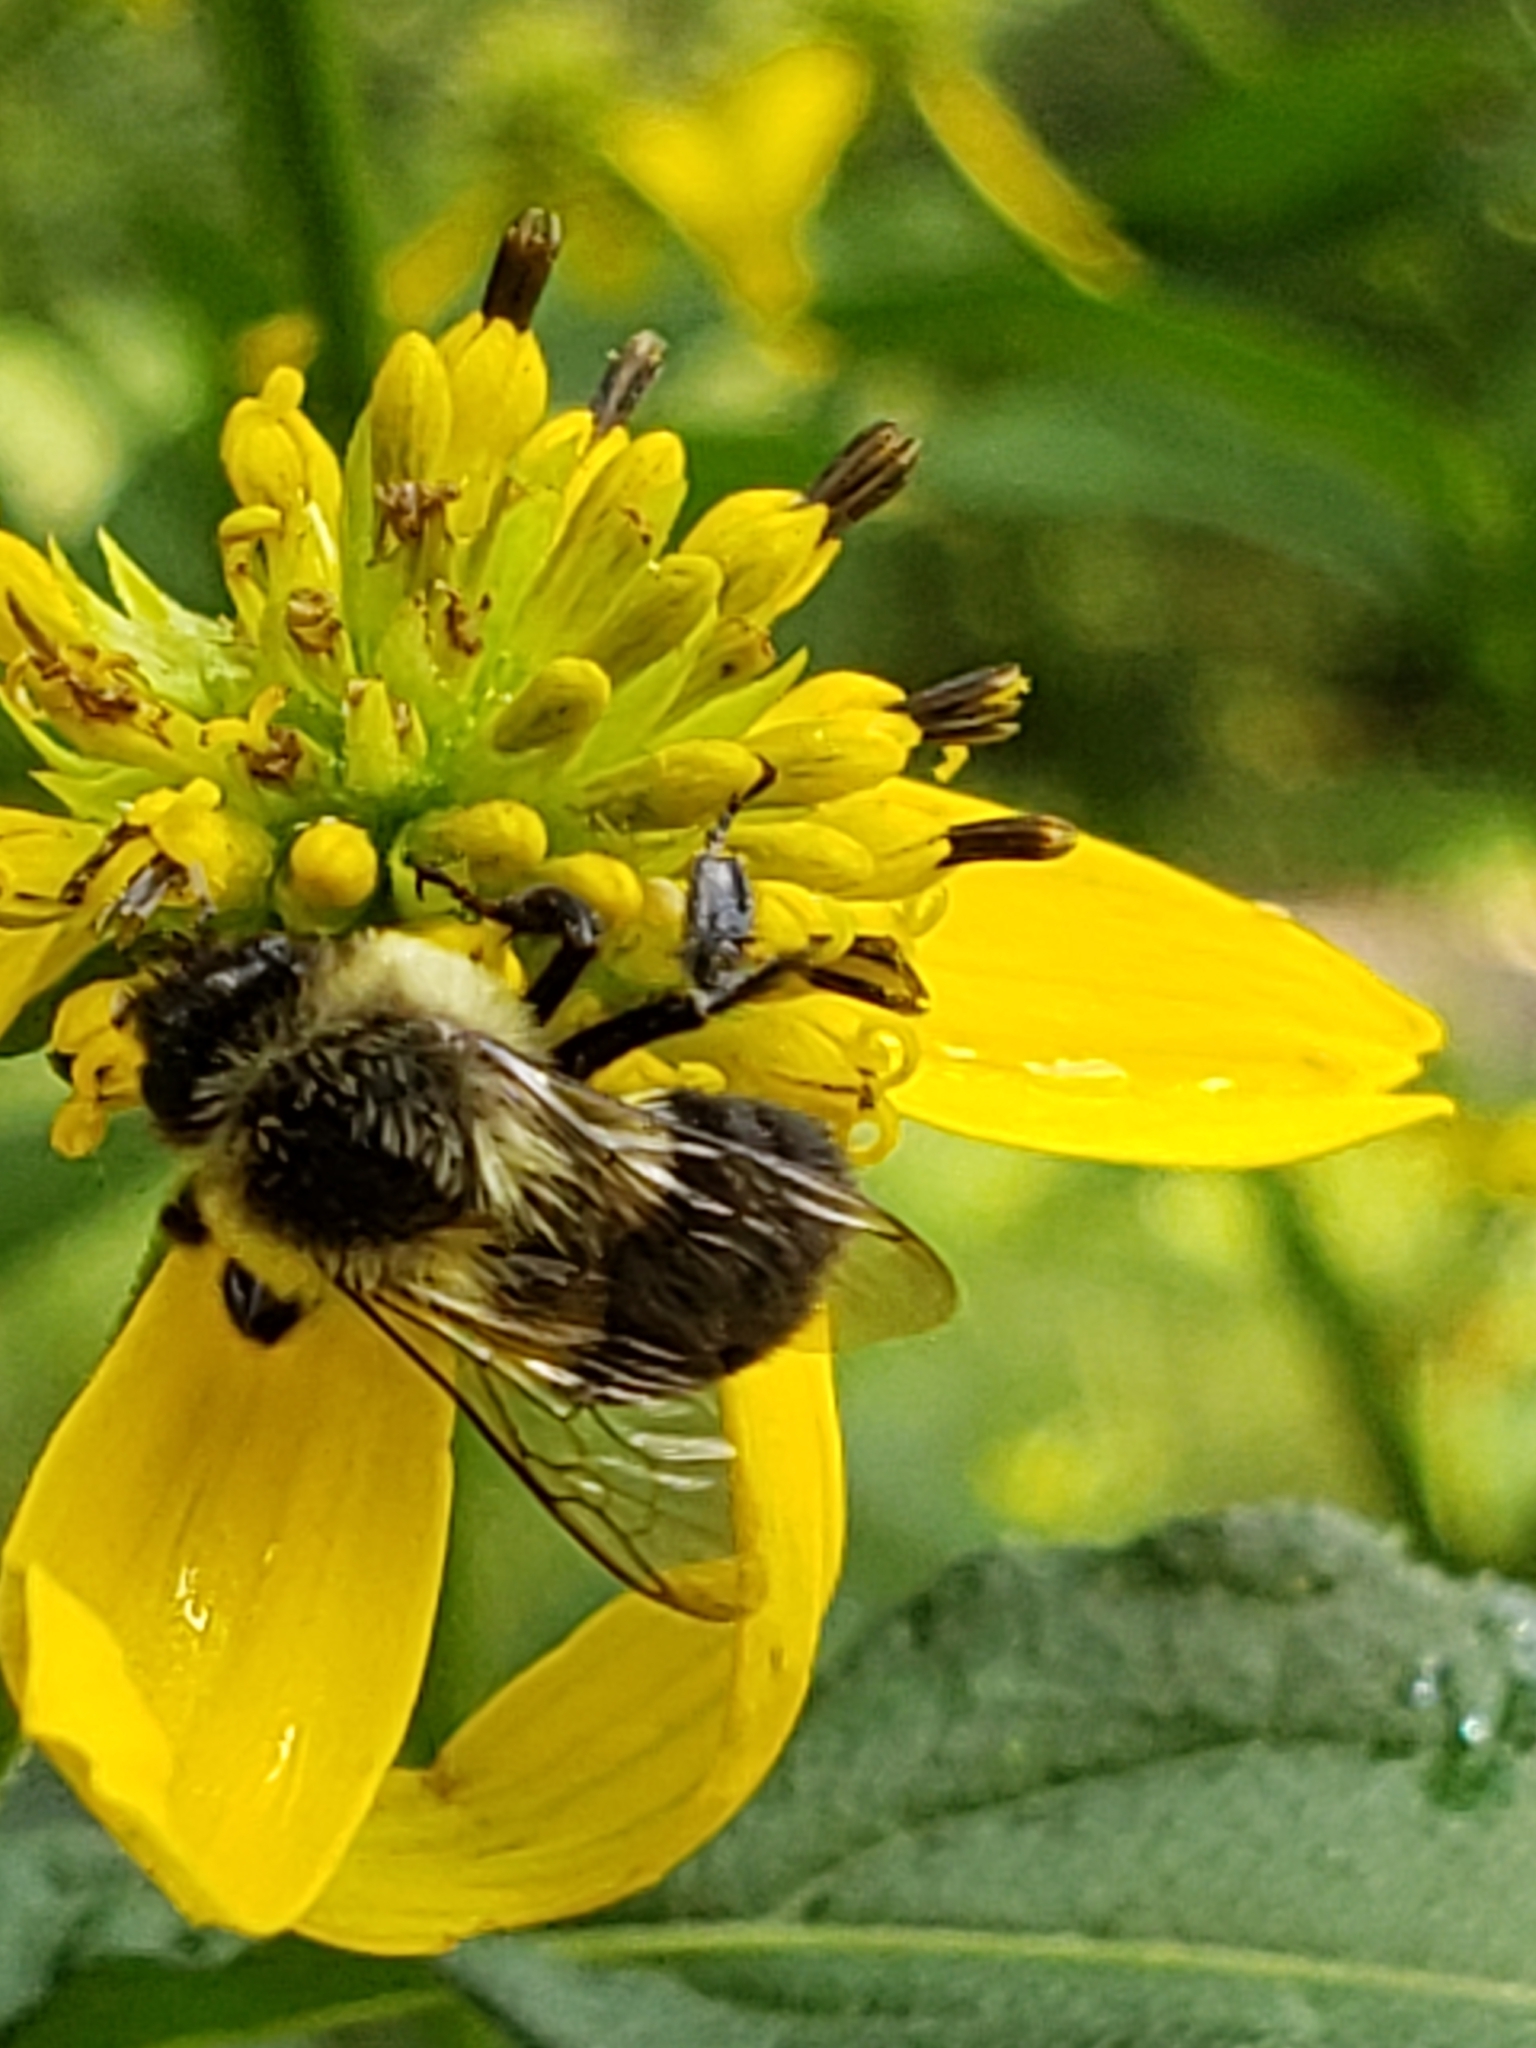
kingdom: Animalia
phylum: Arthropoda
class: Insecta
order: Hymenoptera
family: Apidae
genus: Bombus
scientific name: Bombus impatiens
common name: Common eastern bumble bee
